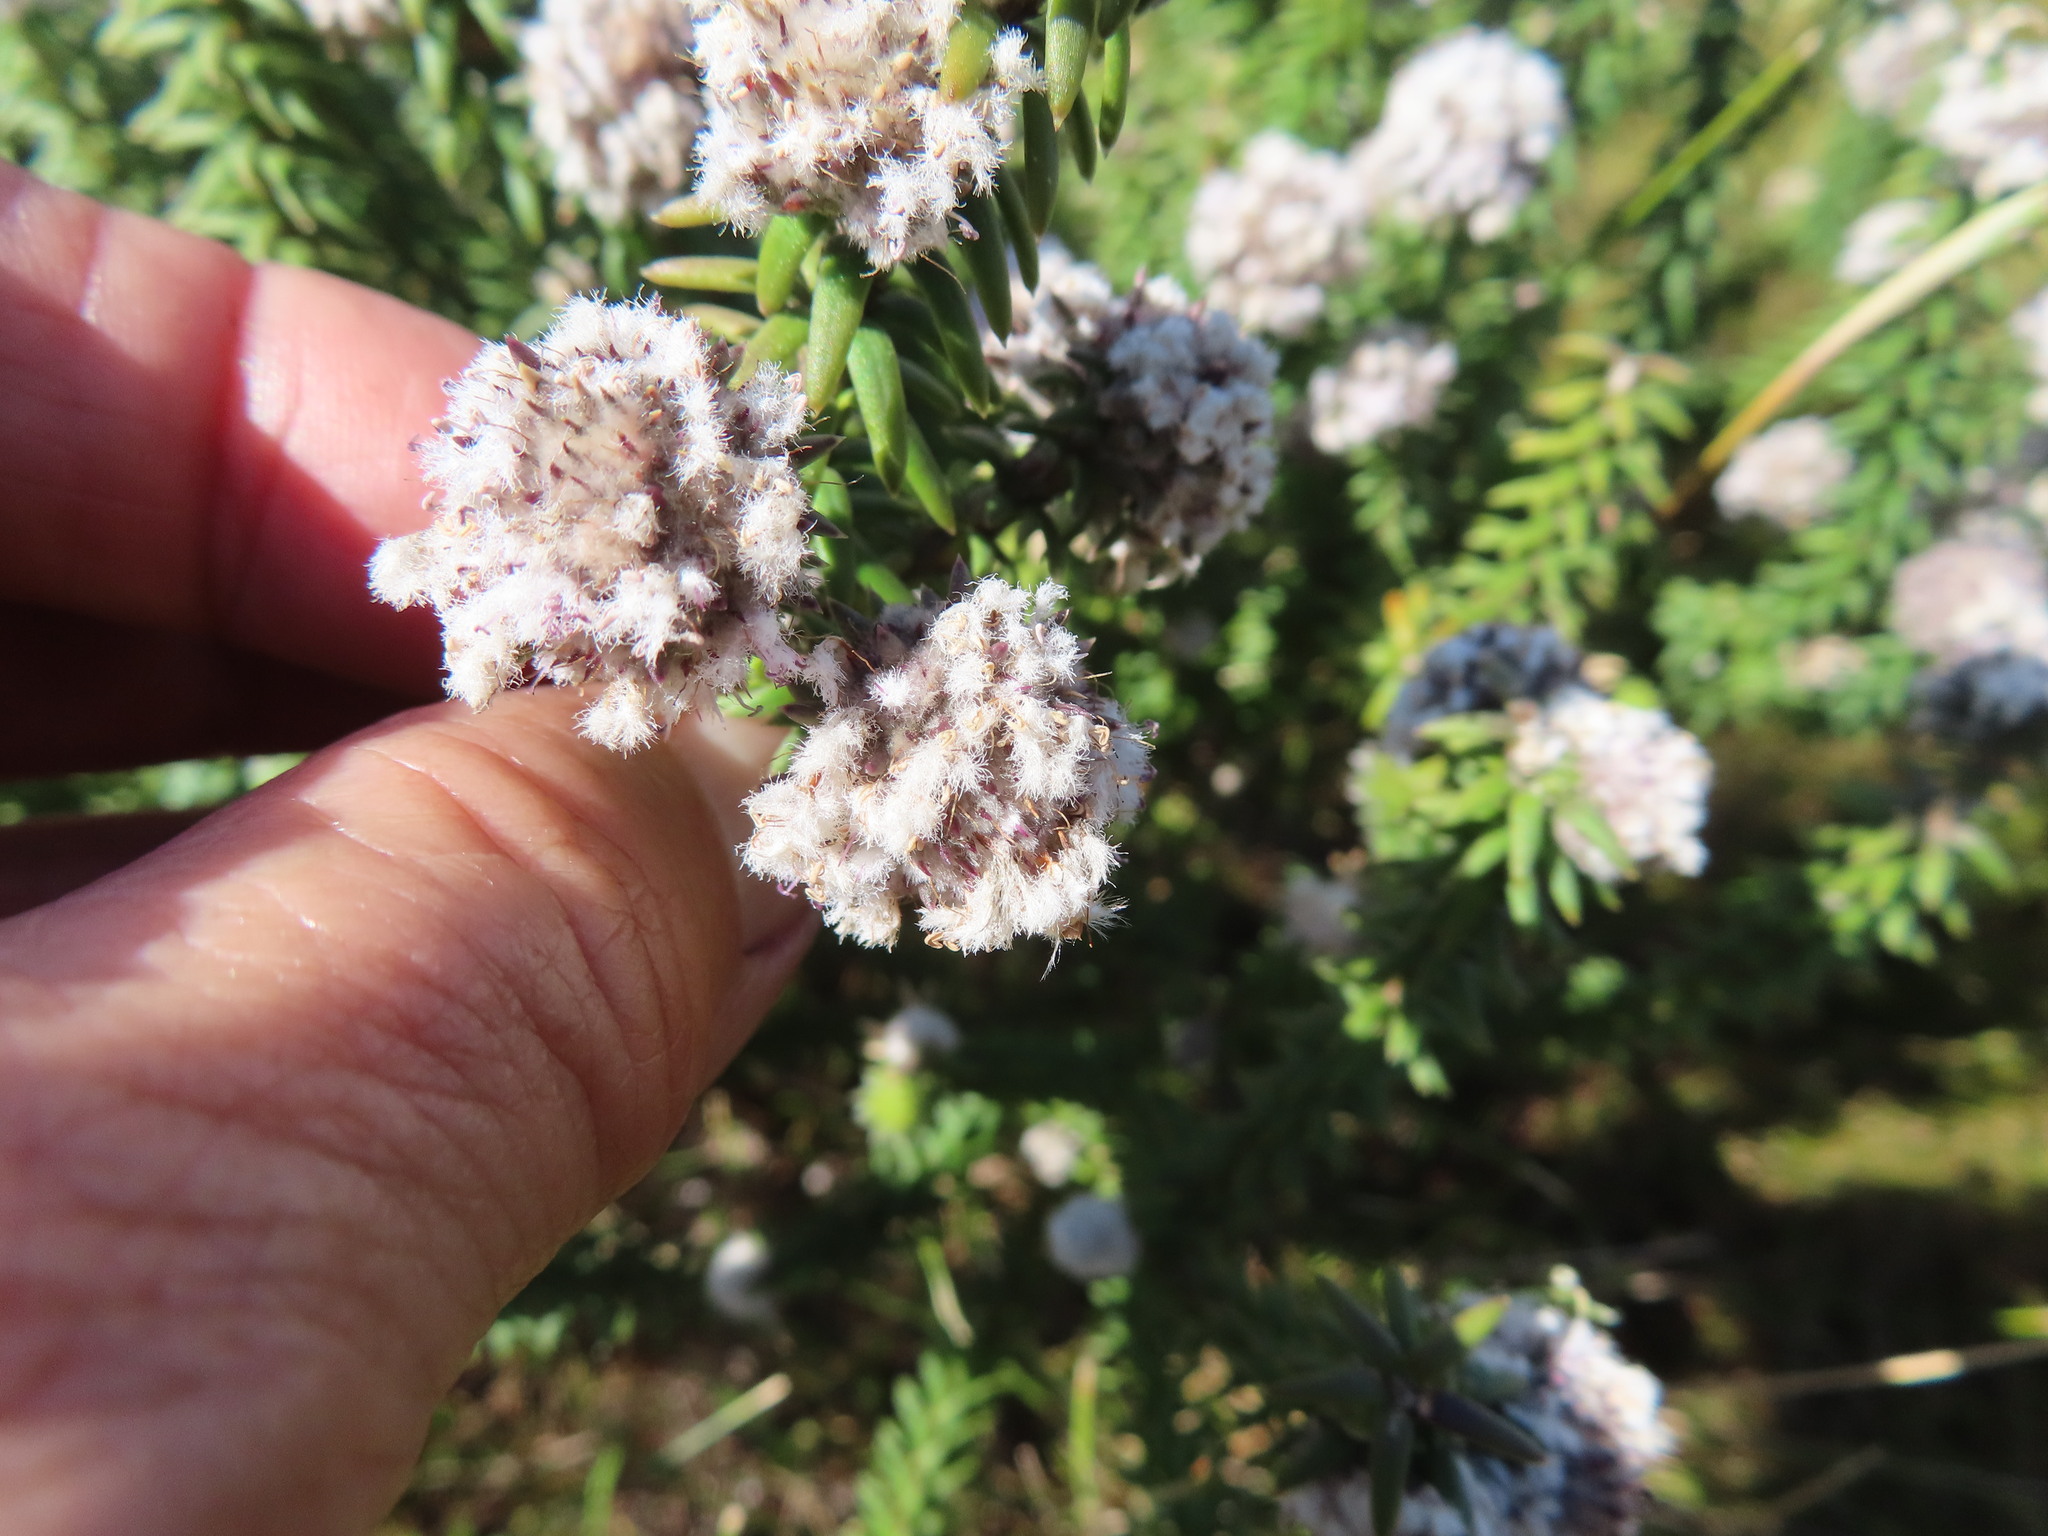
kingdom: Plantae
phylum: Tracheophyta
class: Magnoliopsida
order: Lamiales
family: Stilbaceae
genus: Kogelbergia
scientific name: Kogelbergia verticillata
